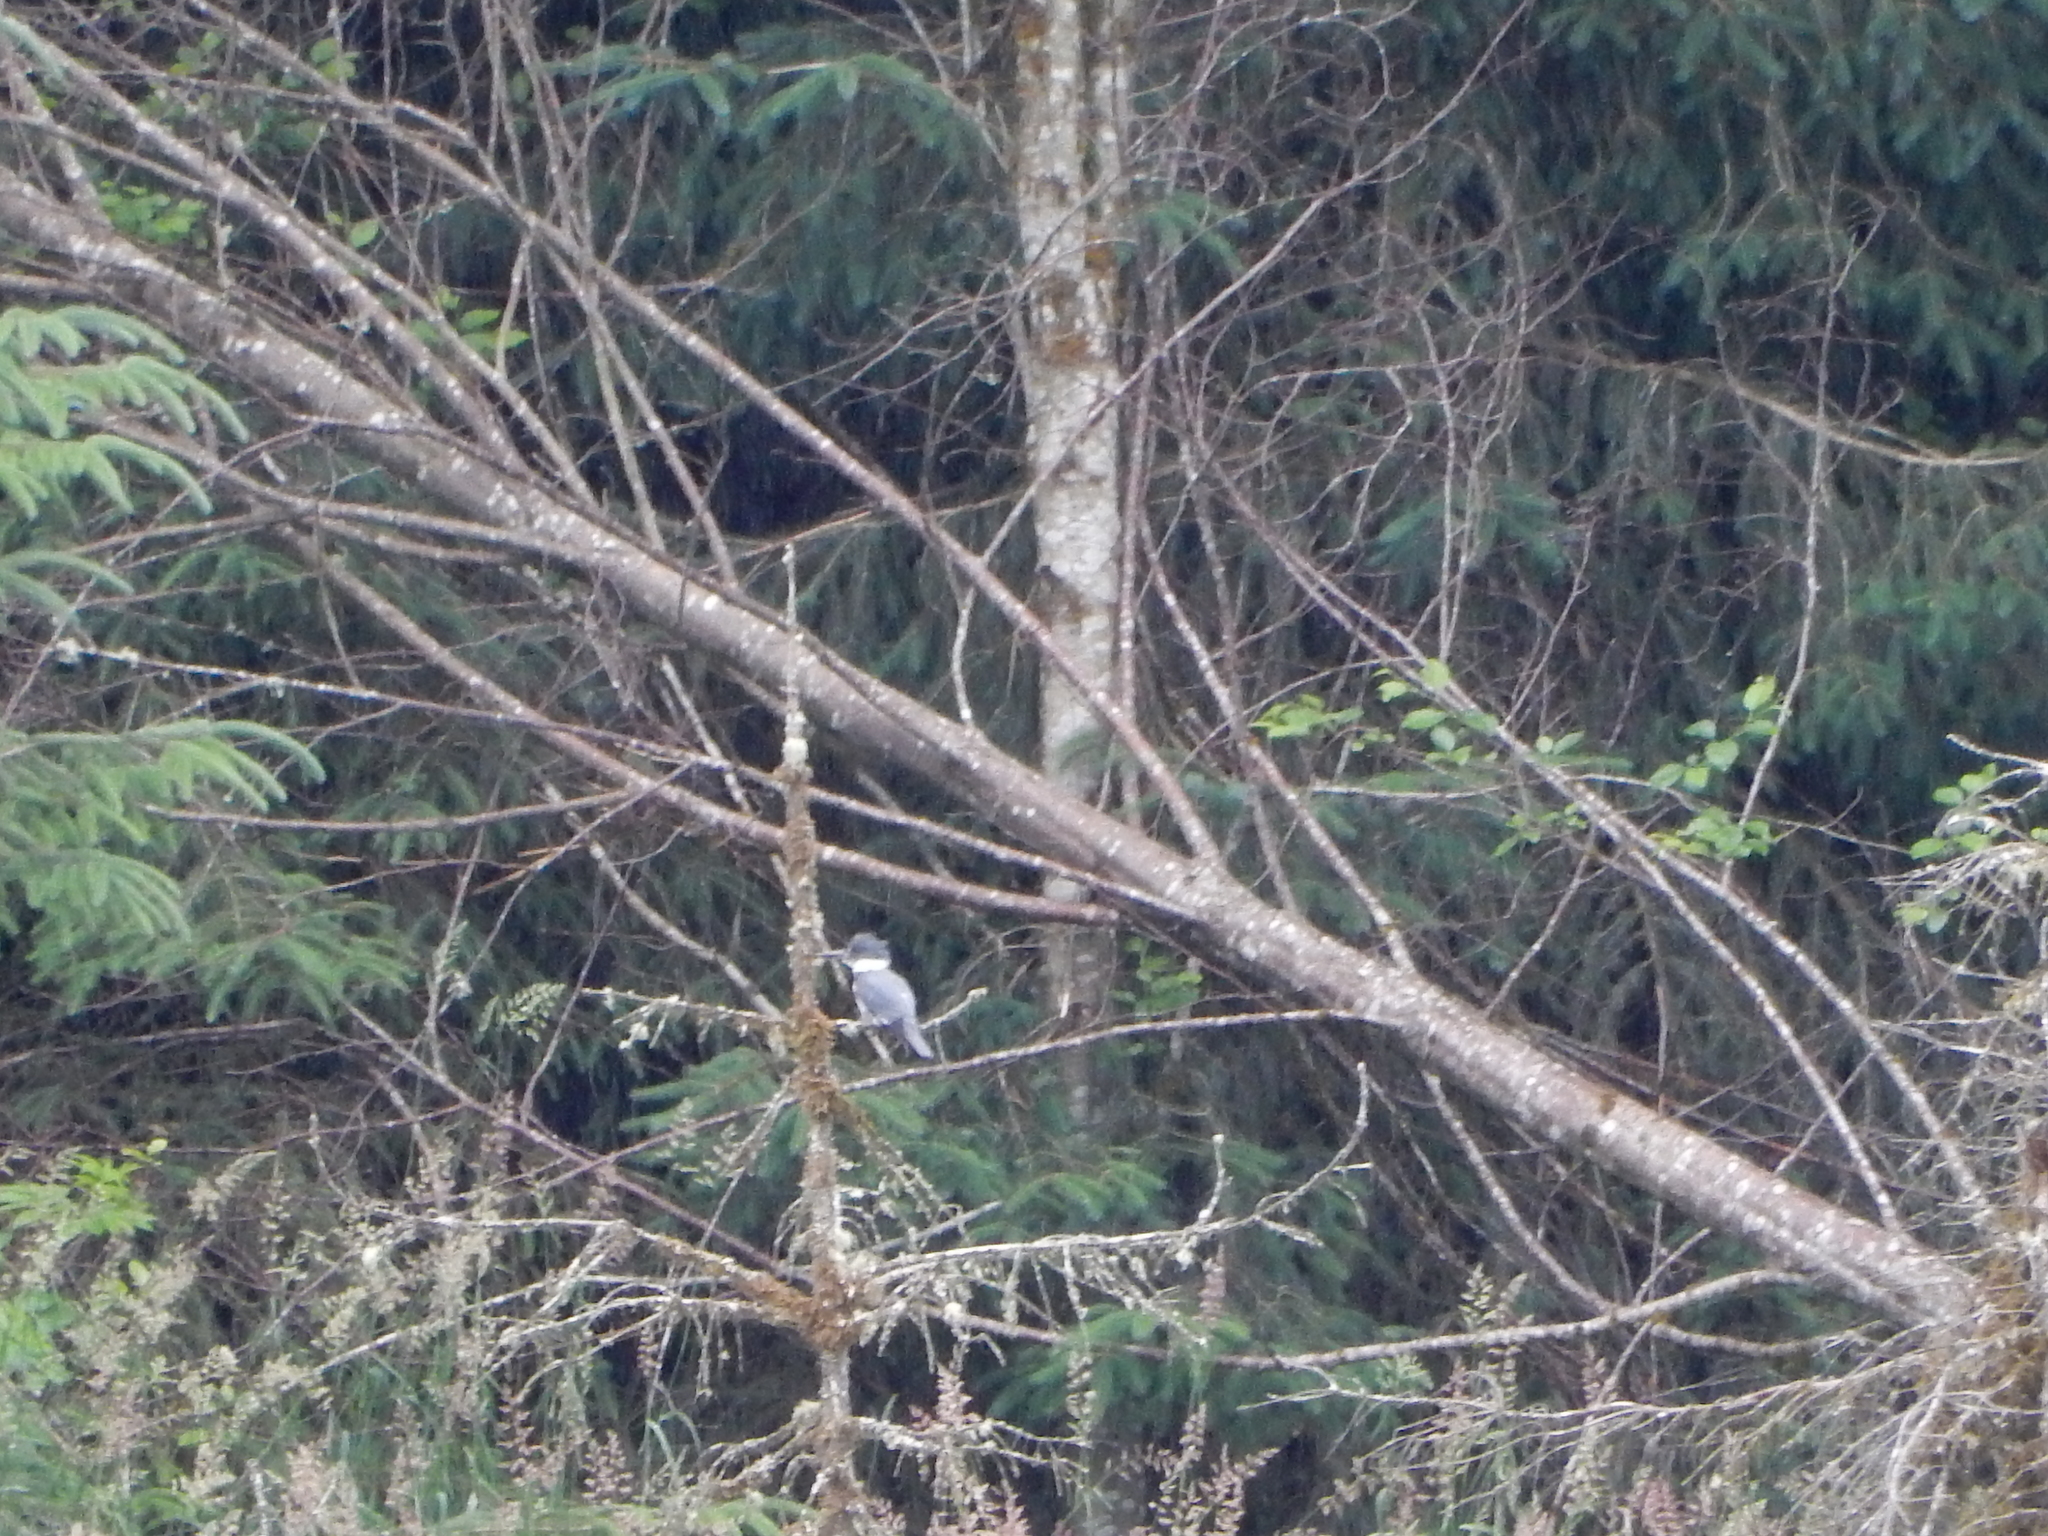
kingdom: Animalia
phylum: Chordata
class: Aves
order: Coraciiformes
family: Alcedinidae
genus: Megaceryle
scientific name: Megaceryle alcyon
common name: Belted kingfisher
